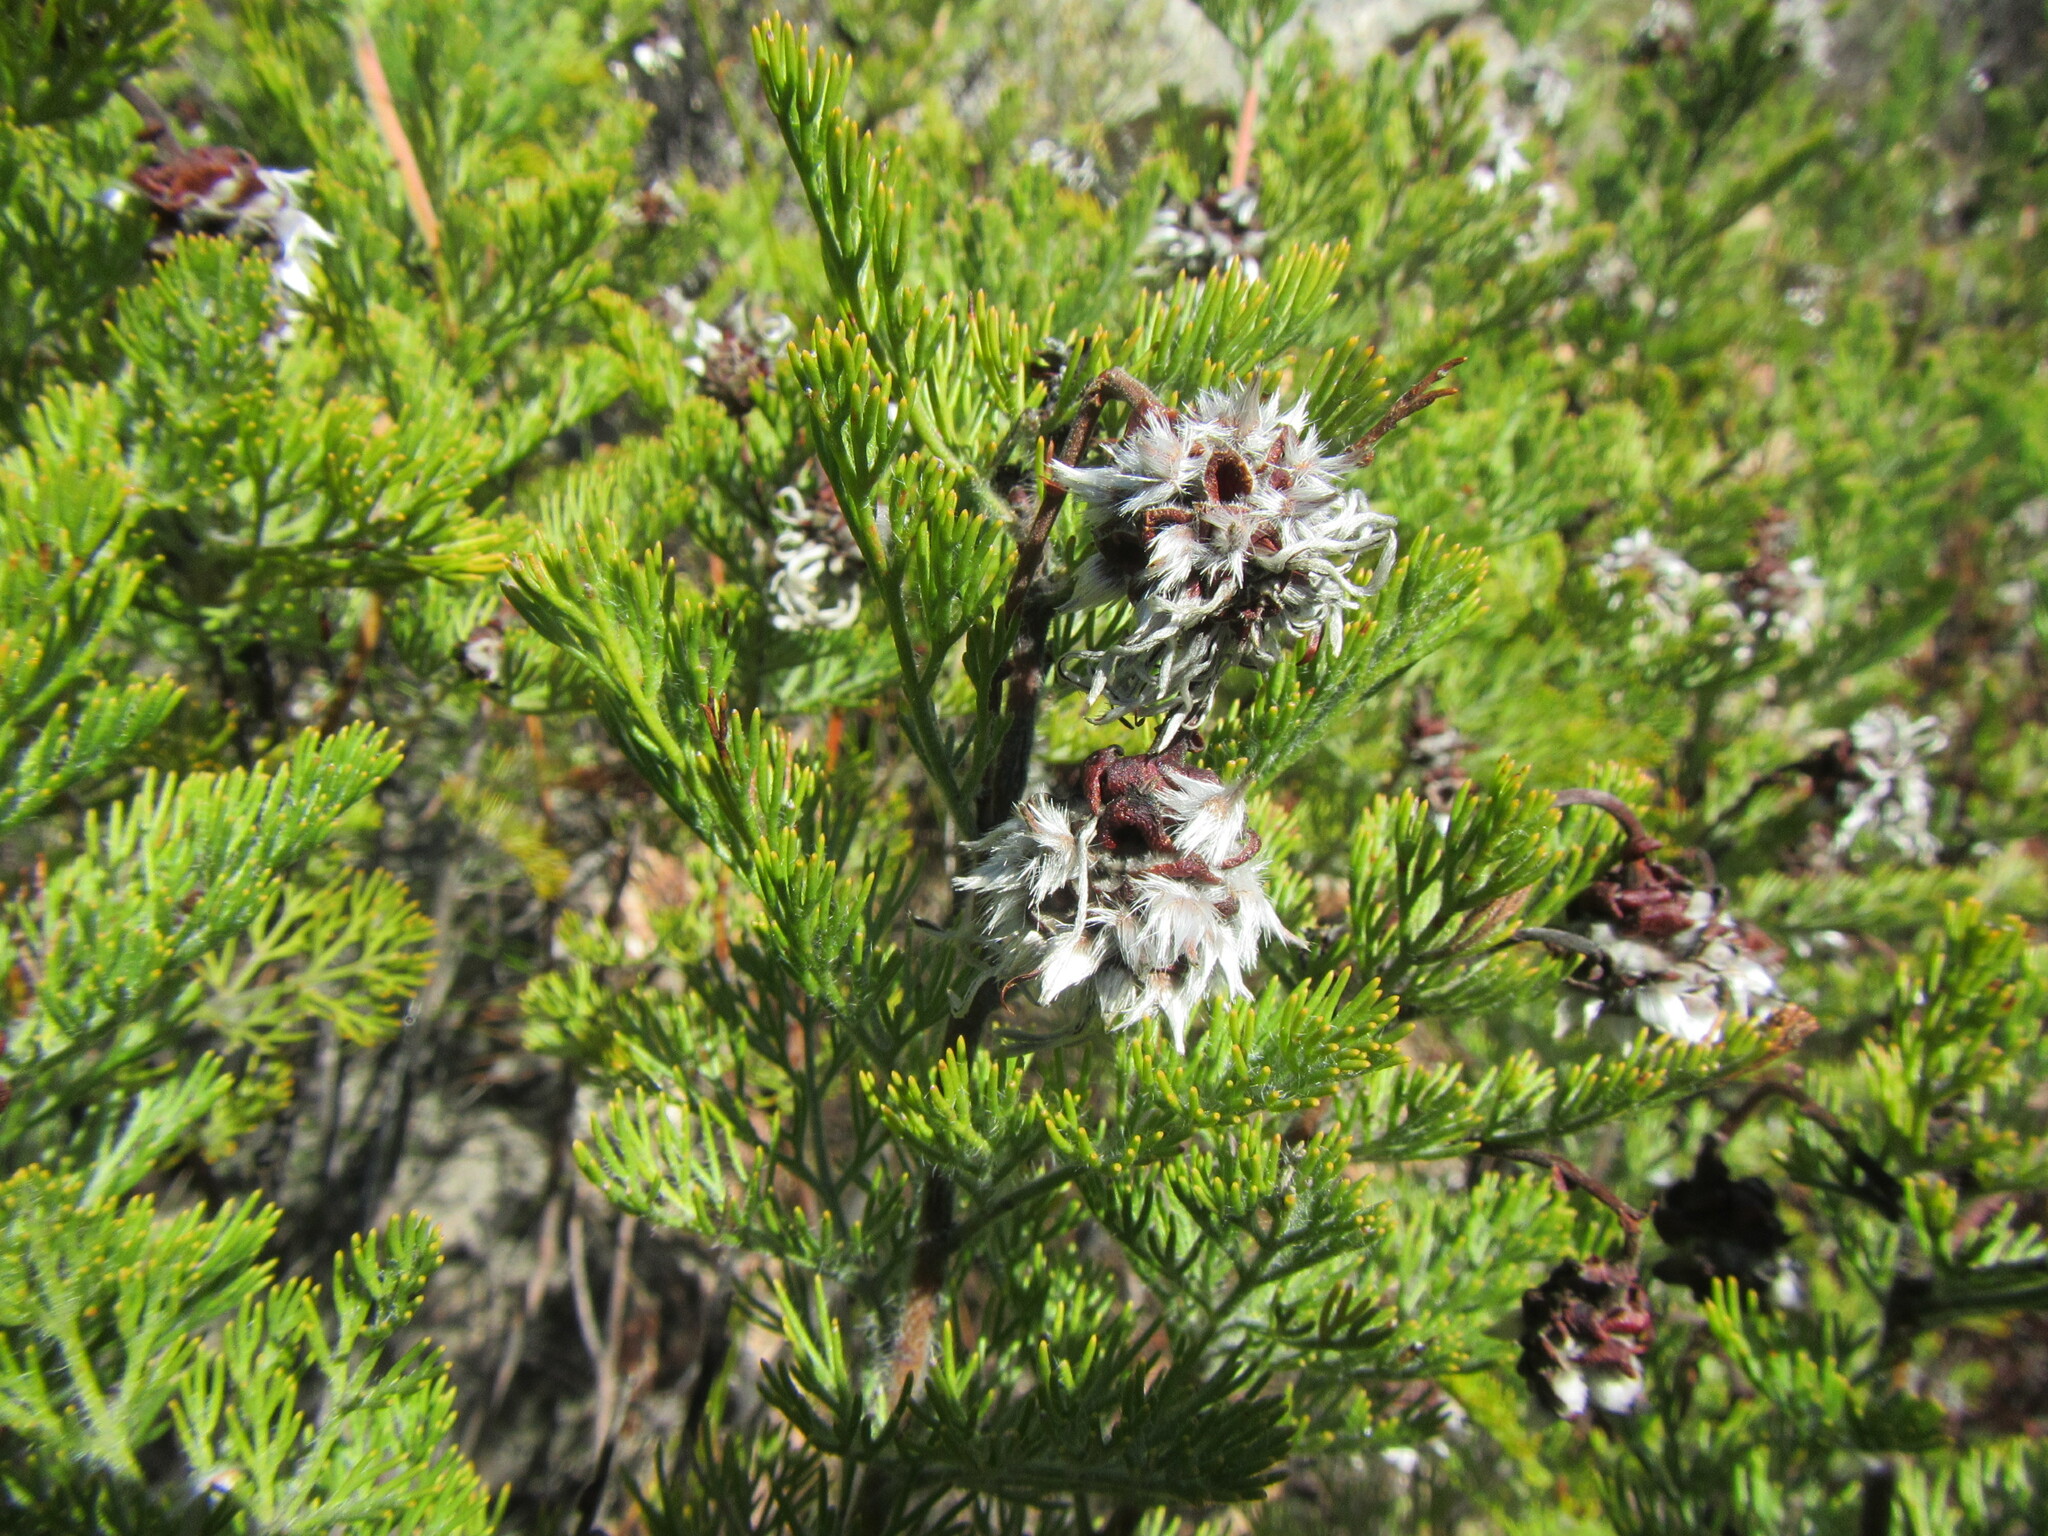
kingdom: Plantae
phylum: Tracheophyta
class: Magnoliopsida
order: Proteales
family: Proteaceae
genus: Serruria
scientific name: Serruria pedunculata
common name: Fan-leaf spiderhead
